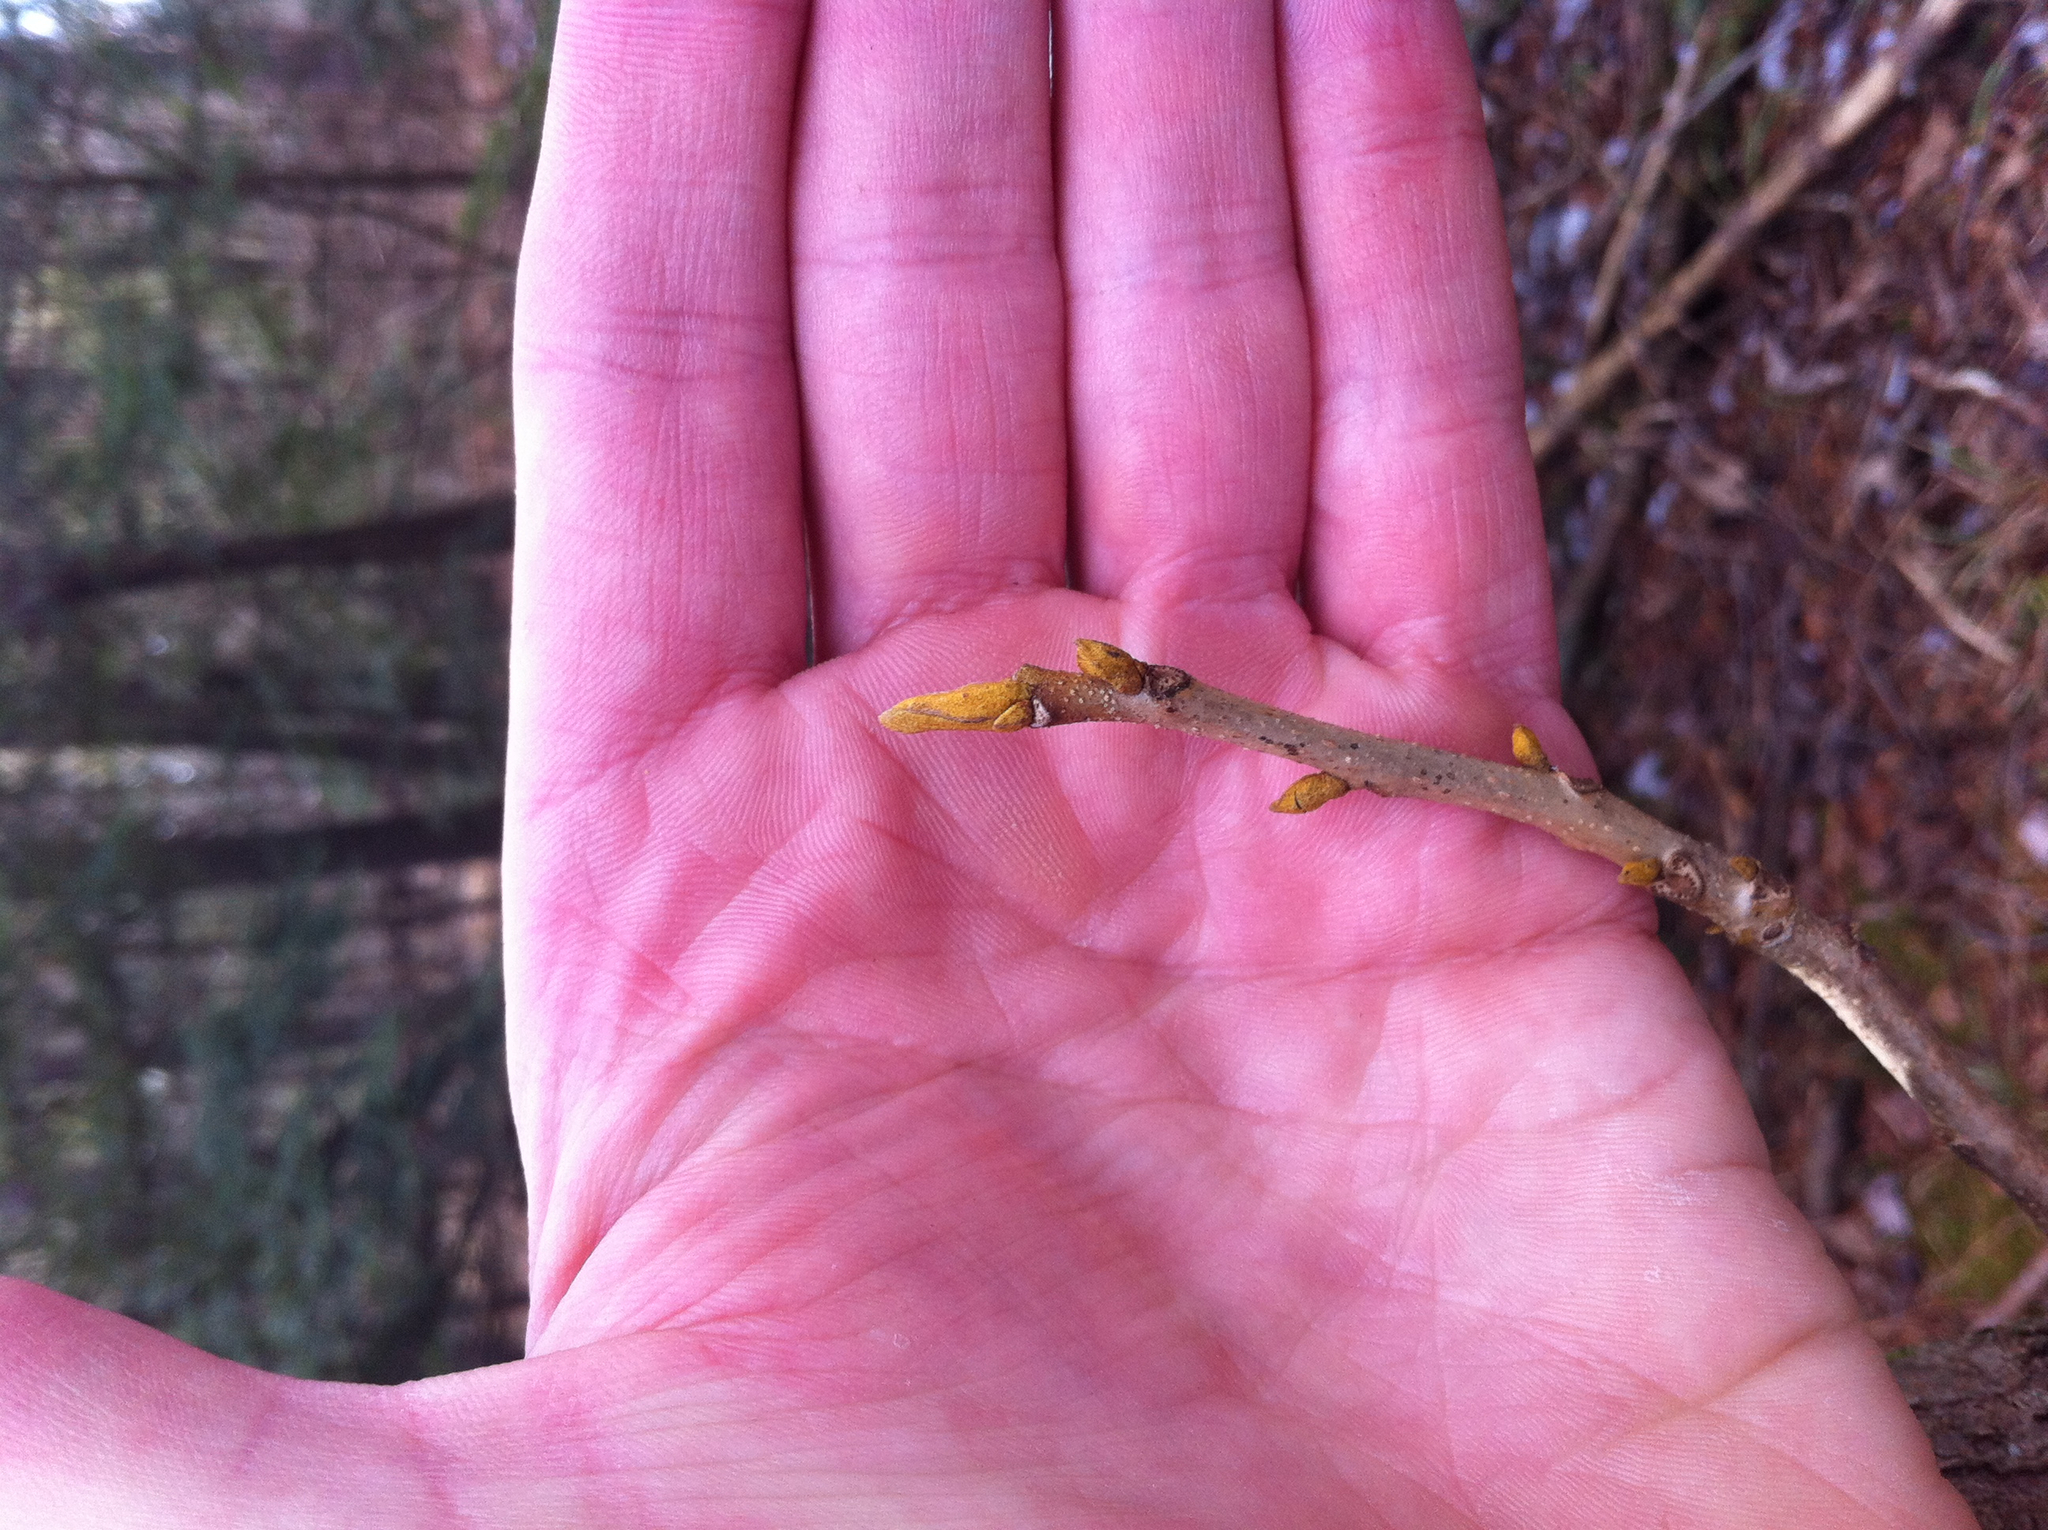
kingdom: Plantae
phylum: Tracheophyta
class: Magnoliopsida
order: Fagales
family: Juglandaceae
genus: Carya
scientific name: Carya cordiformis
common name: Bitternut hickory
